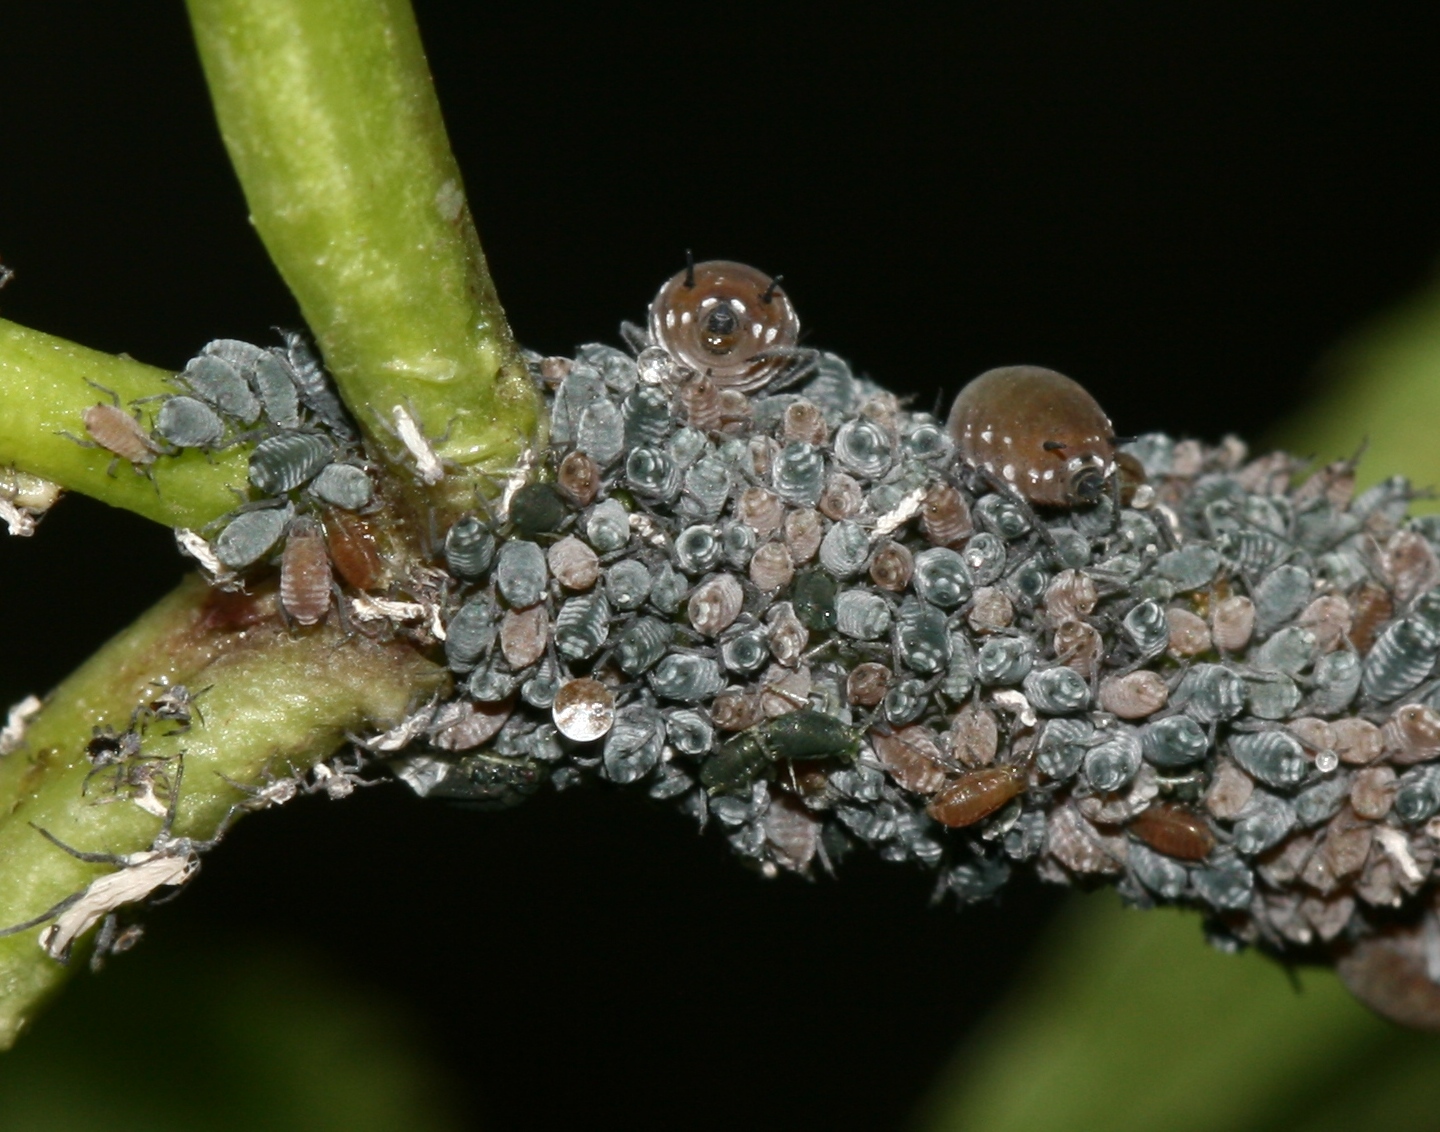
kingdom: Animalia
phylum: Arthropoda
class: Insecta
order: Hemiptera
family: Aphididae
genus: Aphis
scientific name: Aphis sambuci
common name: Elder aphid
